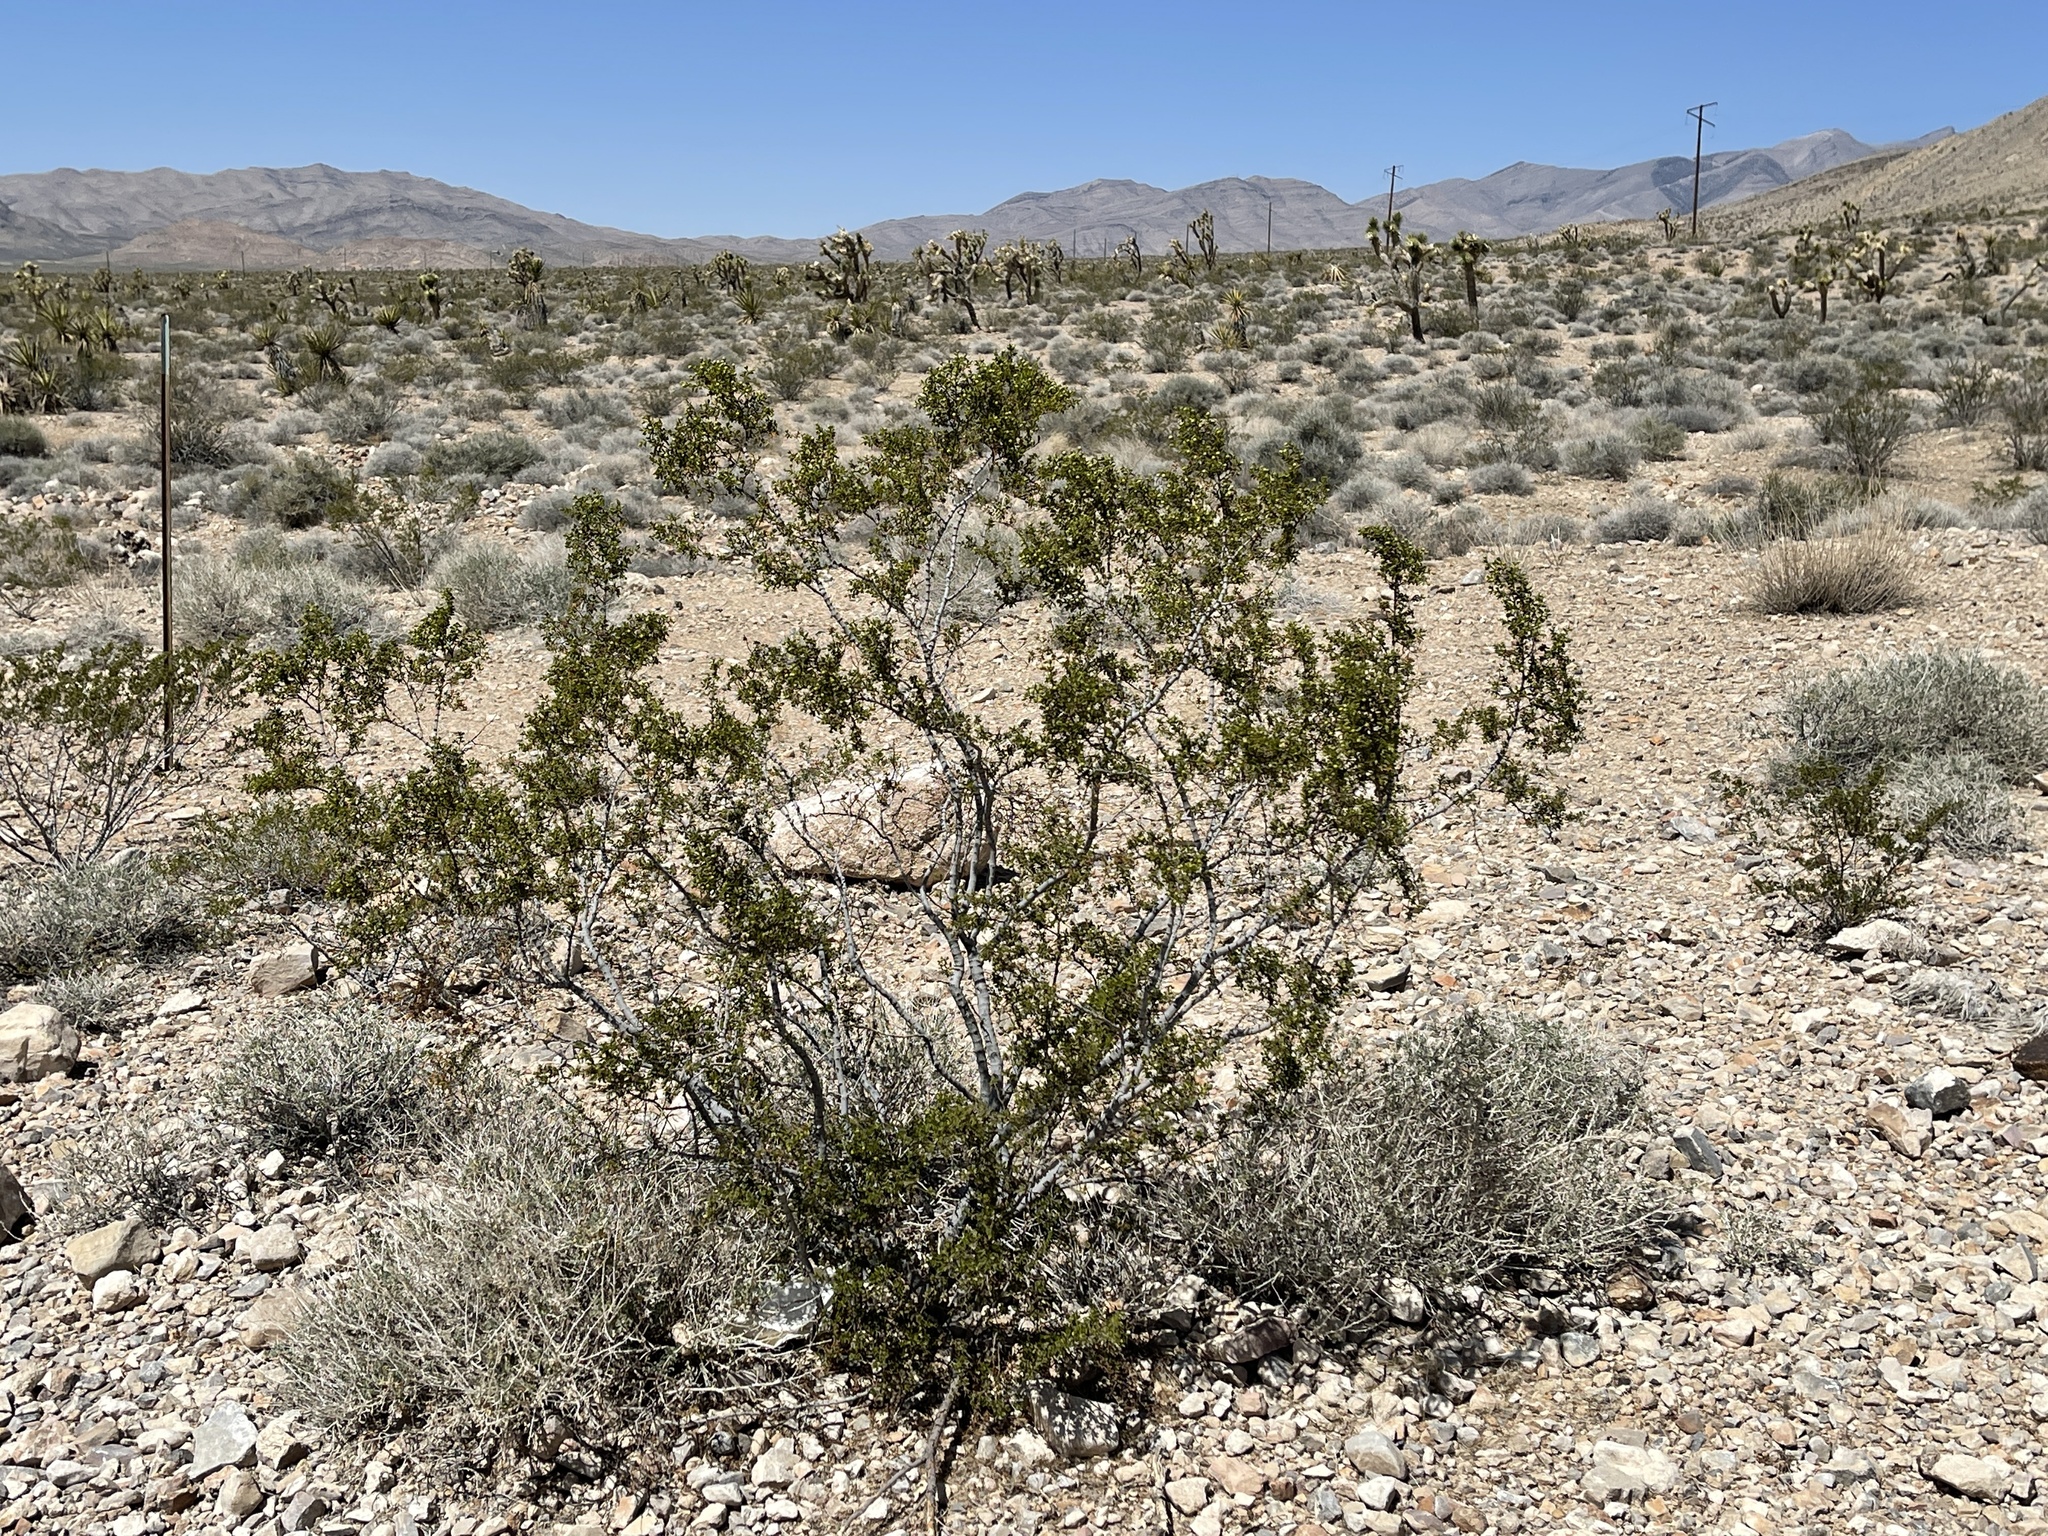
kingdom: Plantae
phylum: Tracheophyta
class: Magnoliopsida
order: Zygophyllales
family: Zygophyllaceae
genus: Larrea
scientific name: Larrea tridentata
